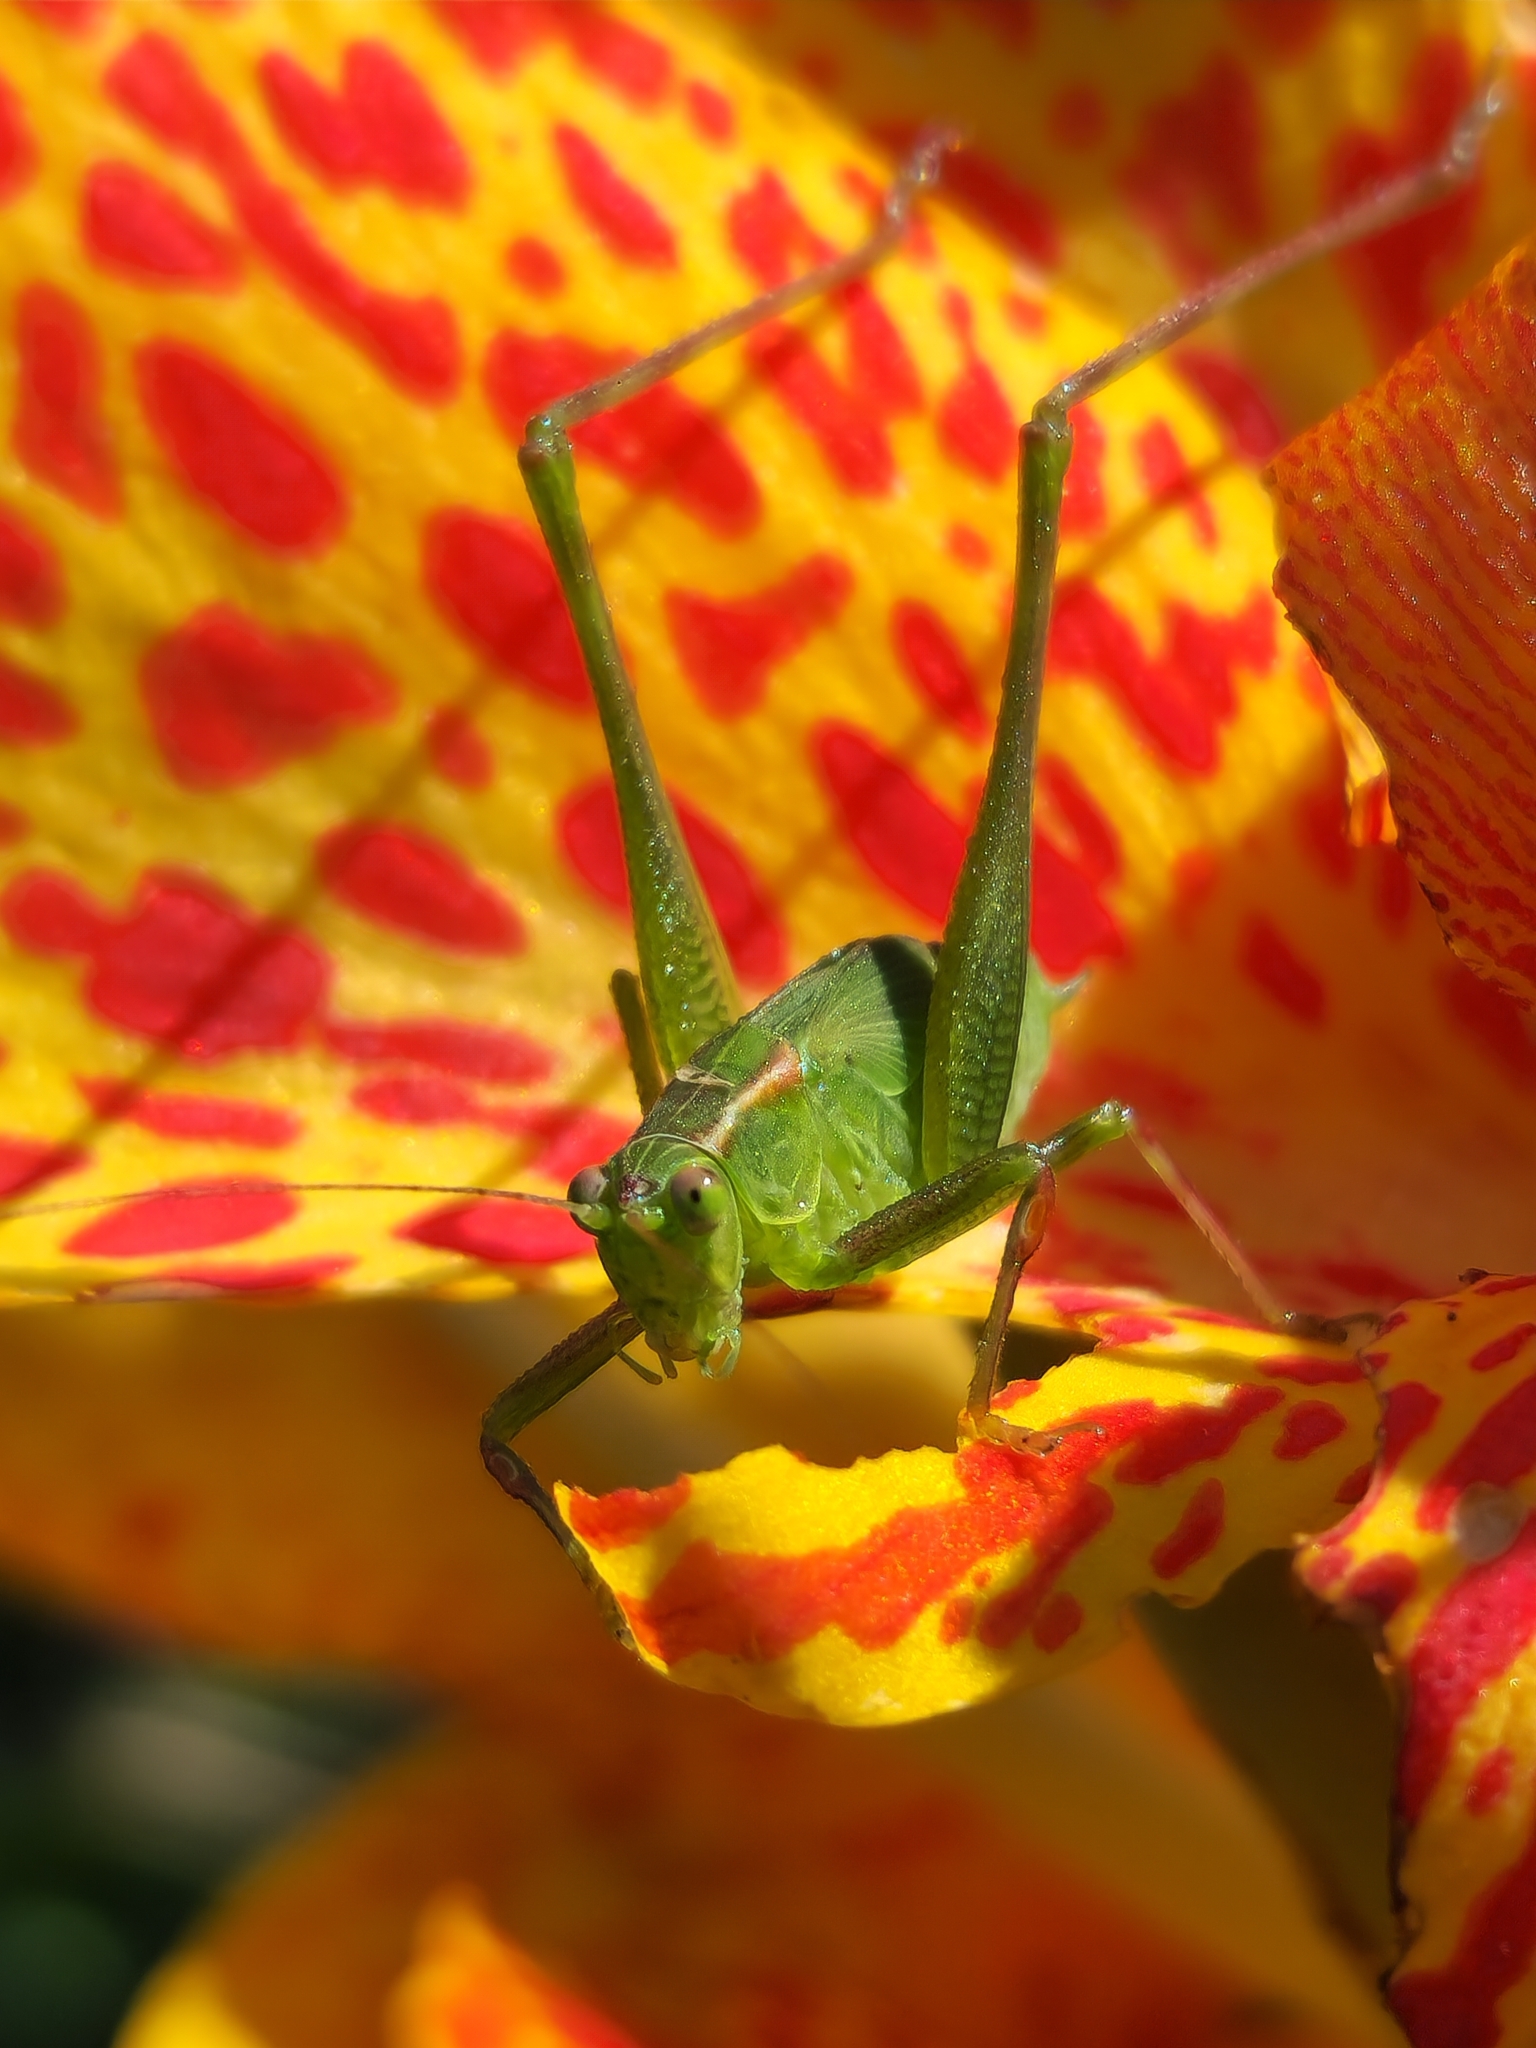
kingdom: Animalia
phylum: Arthropoda
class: Insecta
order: Orthoptera
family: Tettigoniidae
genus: Ligocatinus
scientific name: Ligocatinus spinatus
